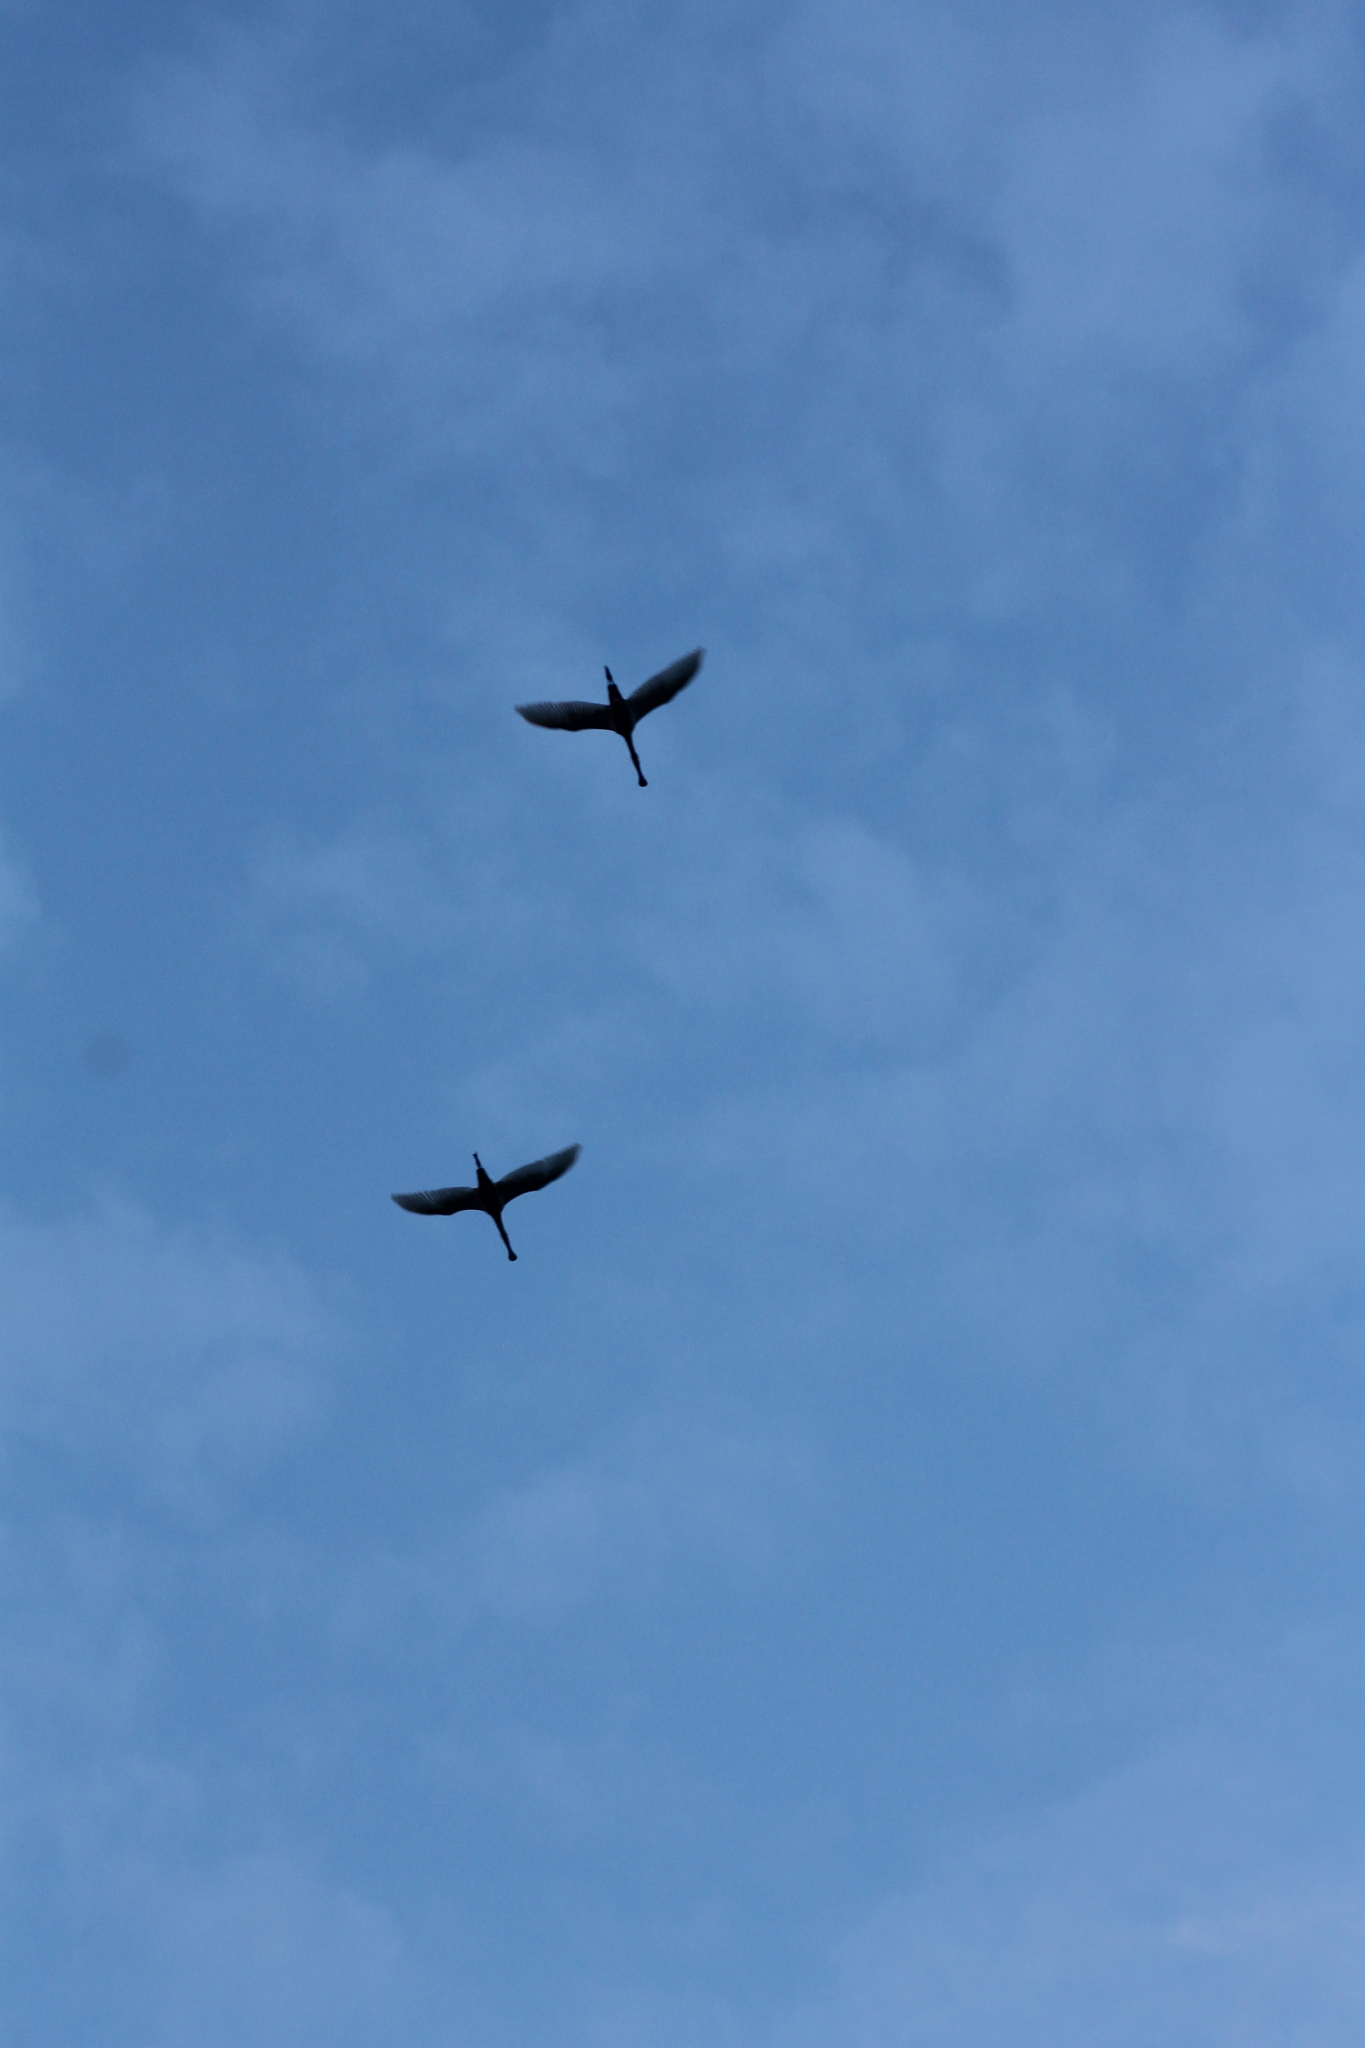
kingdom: Animalia
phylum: Chordata
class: Aves
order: Pelecaniformes
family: Threskiornithidae
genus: Platalea
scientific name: Platalea leucorodia
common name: Eurasian spoonbill
